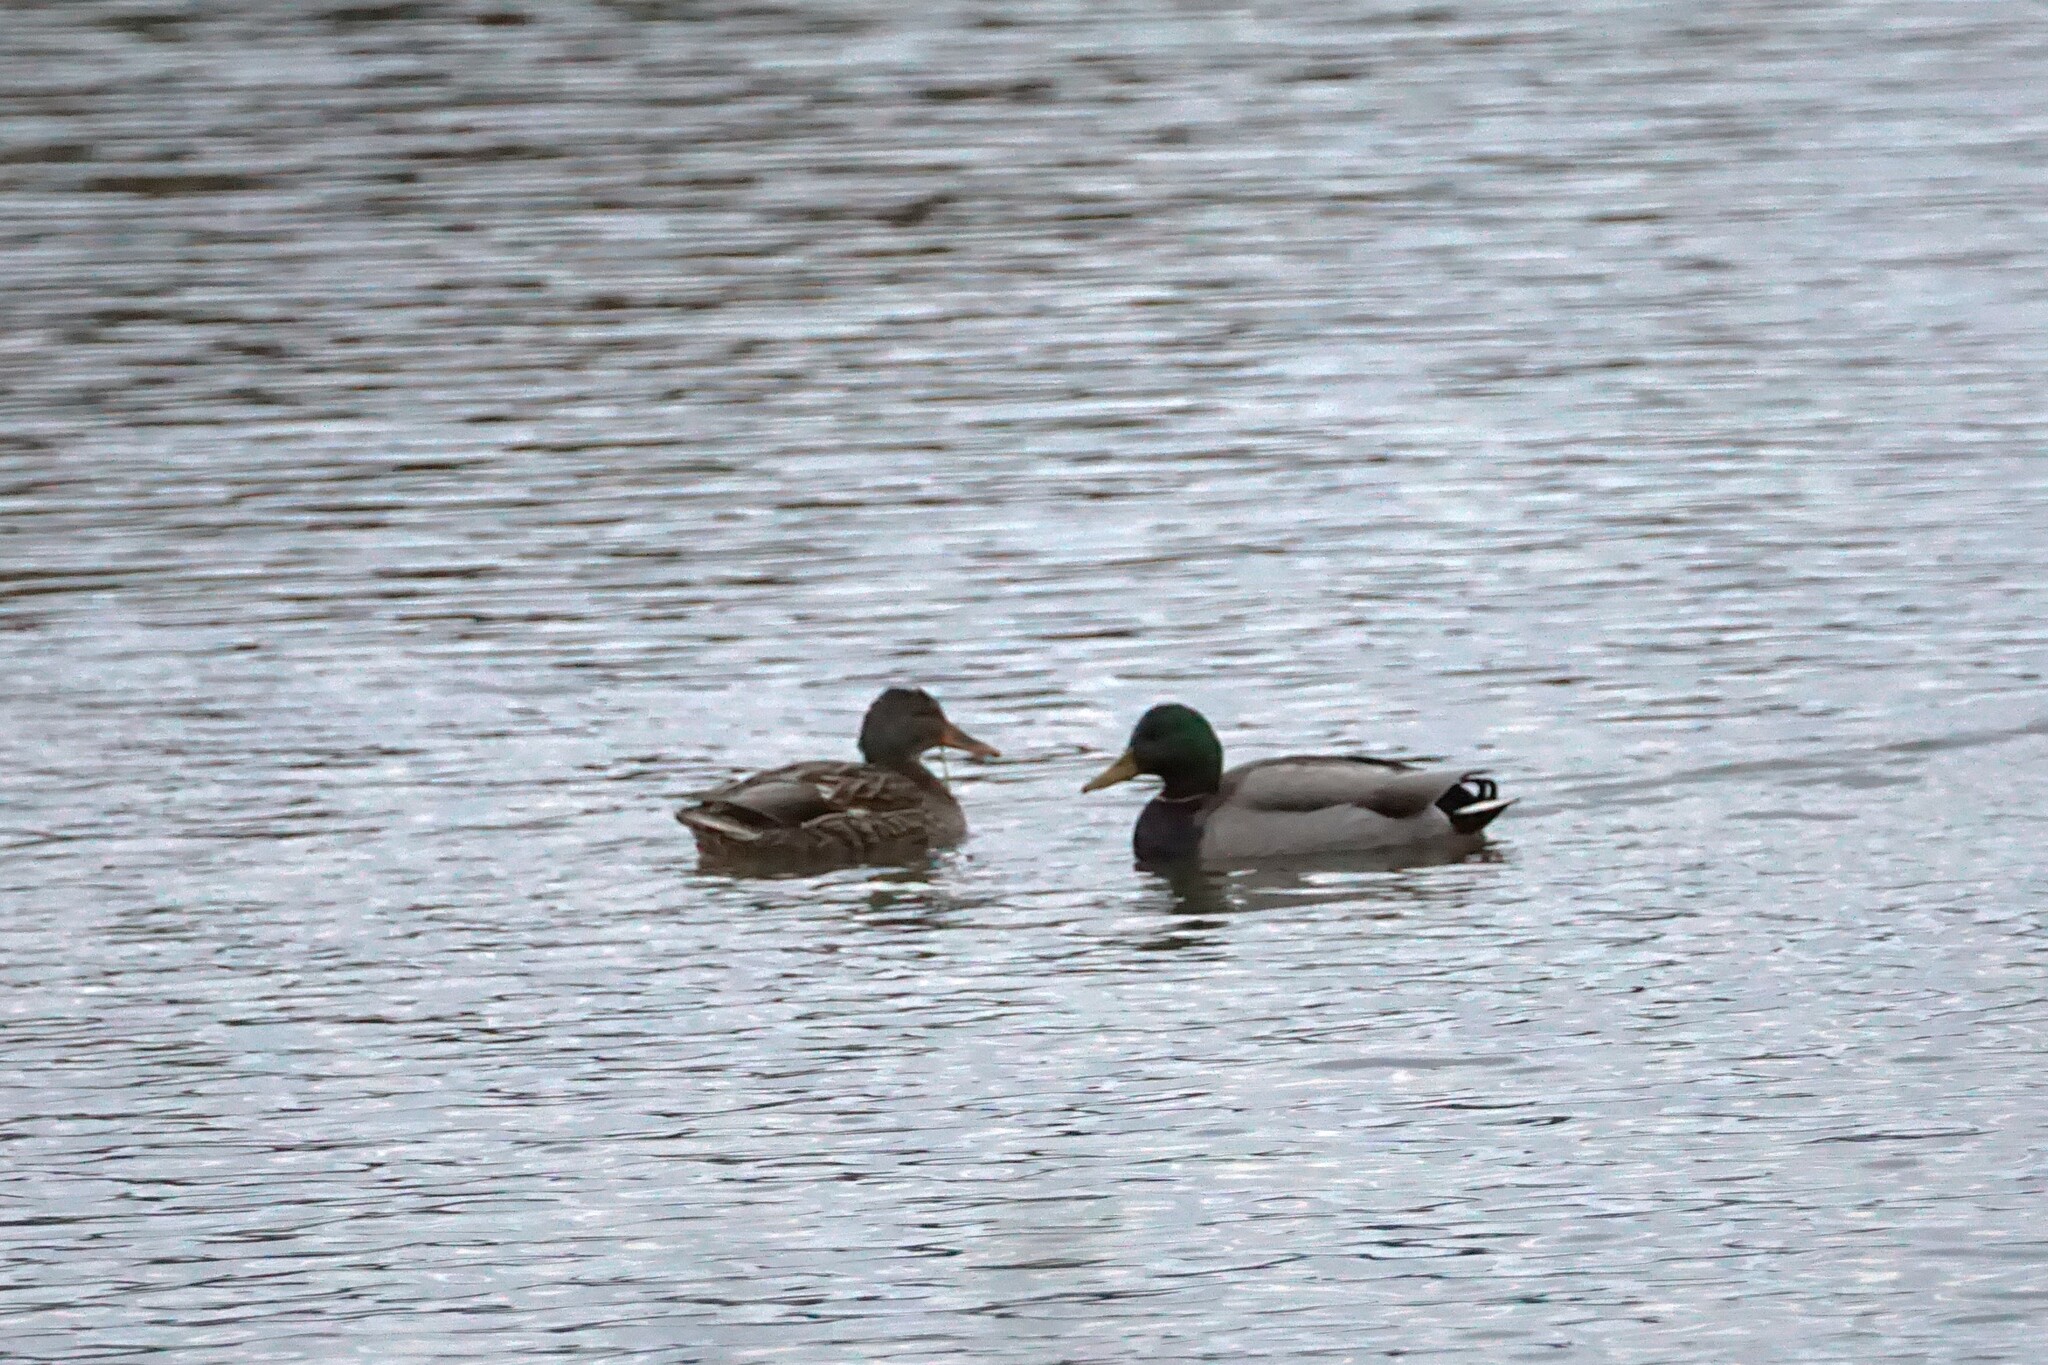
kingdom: Animalia
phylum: Chordata
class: Aves
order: Anseriformes
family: Anatidae
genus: Anas
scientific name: Anas platyrhynchos
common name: Mallard
